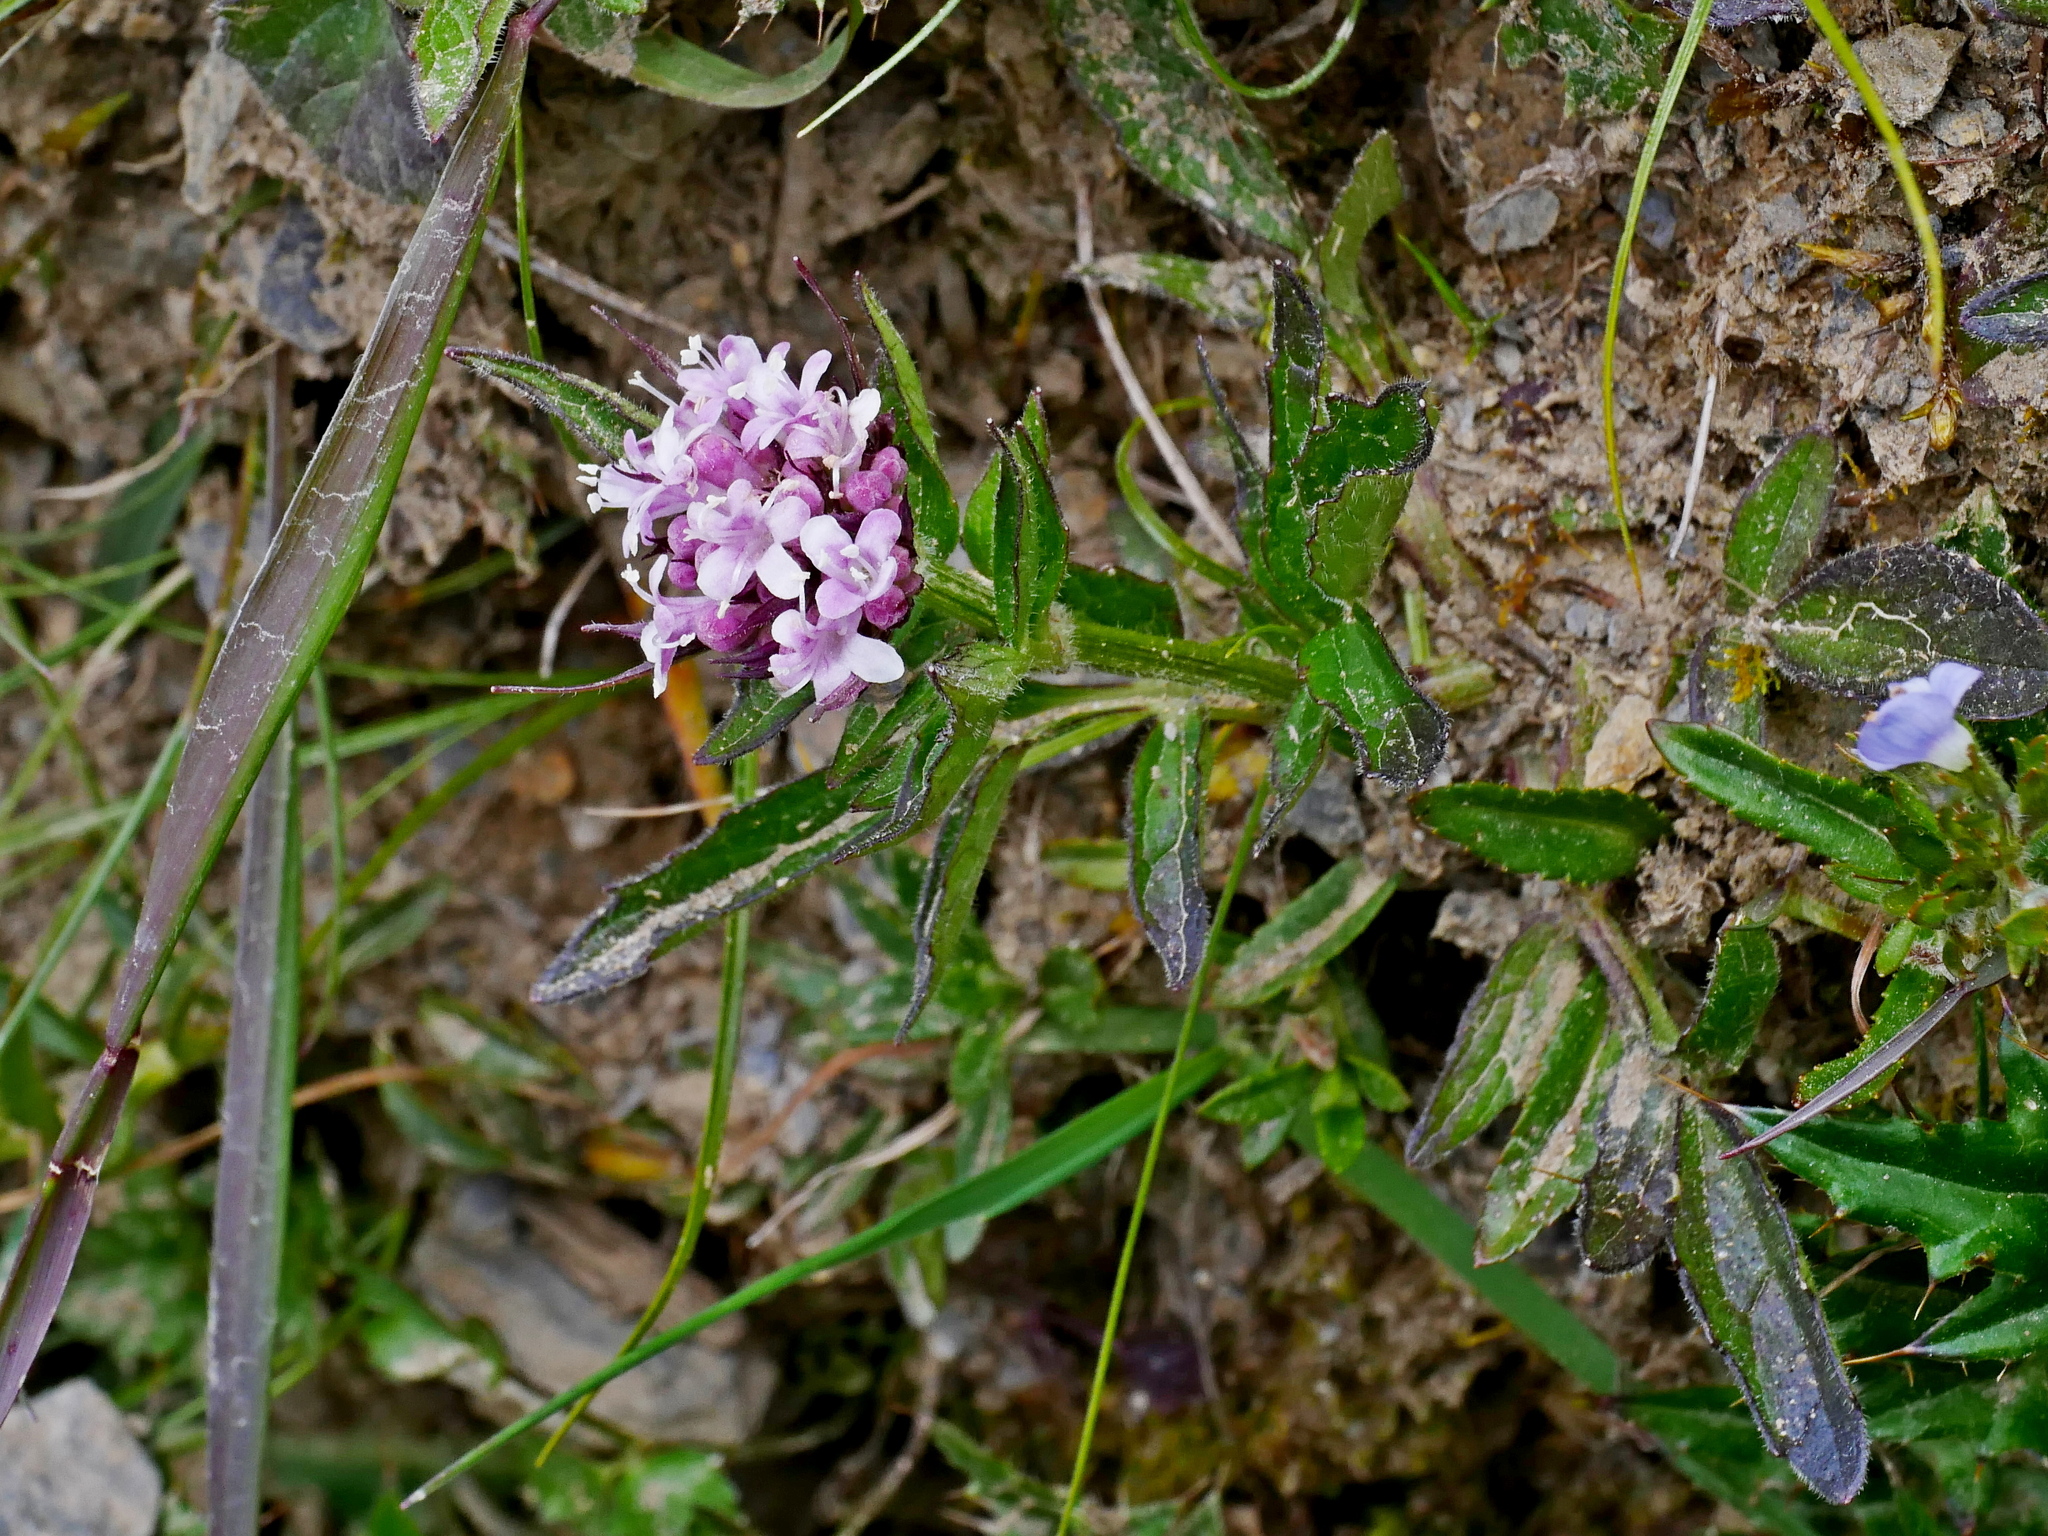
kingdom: Plantae
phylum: Tracheophyta
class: Magnoliopsida
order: Dipsacales
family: Caprifoliaceae
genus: Valeriana
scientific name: Valeriana fauriei
